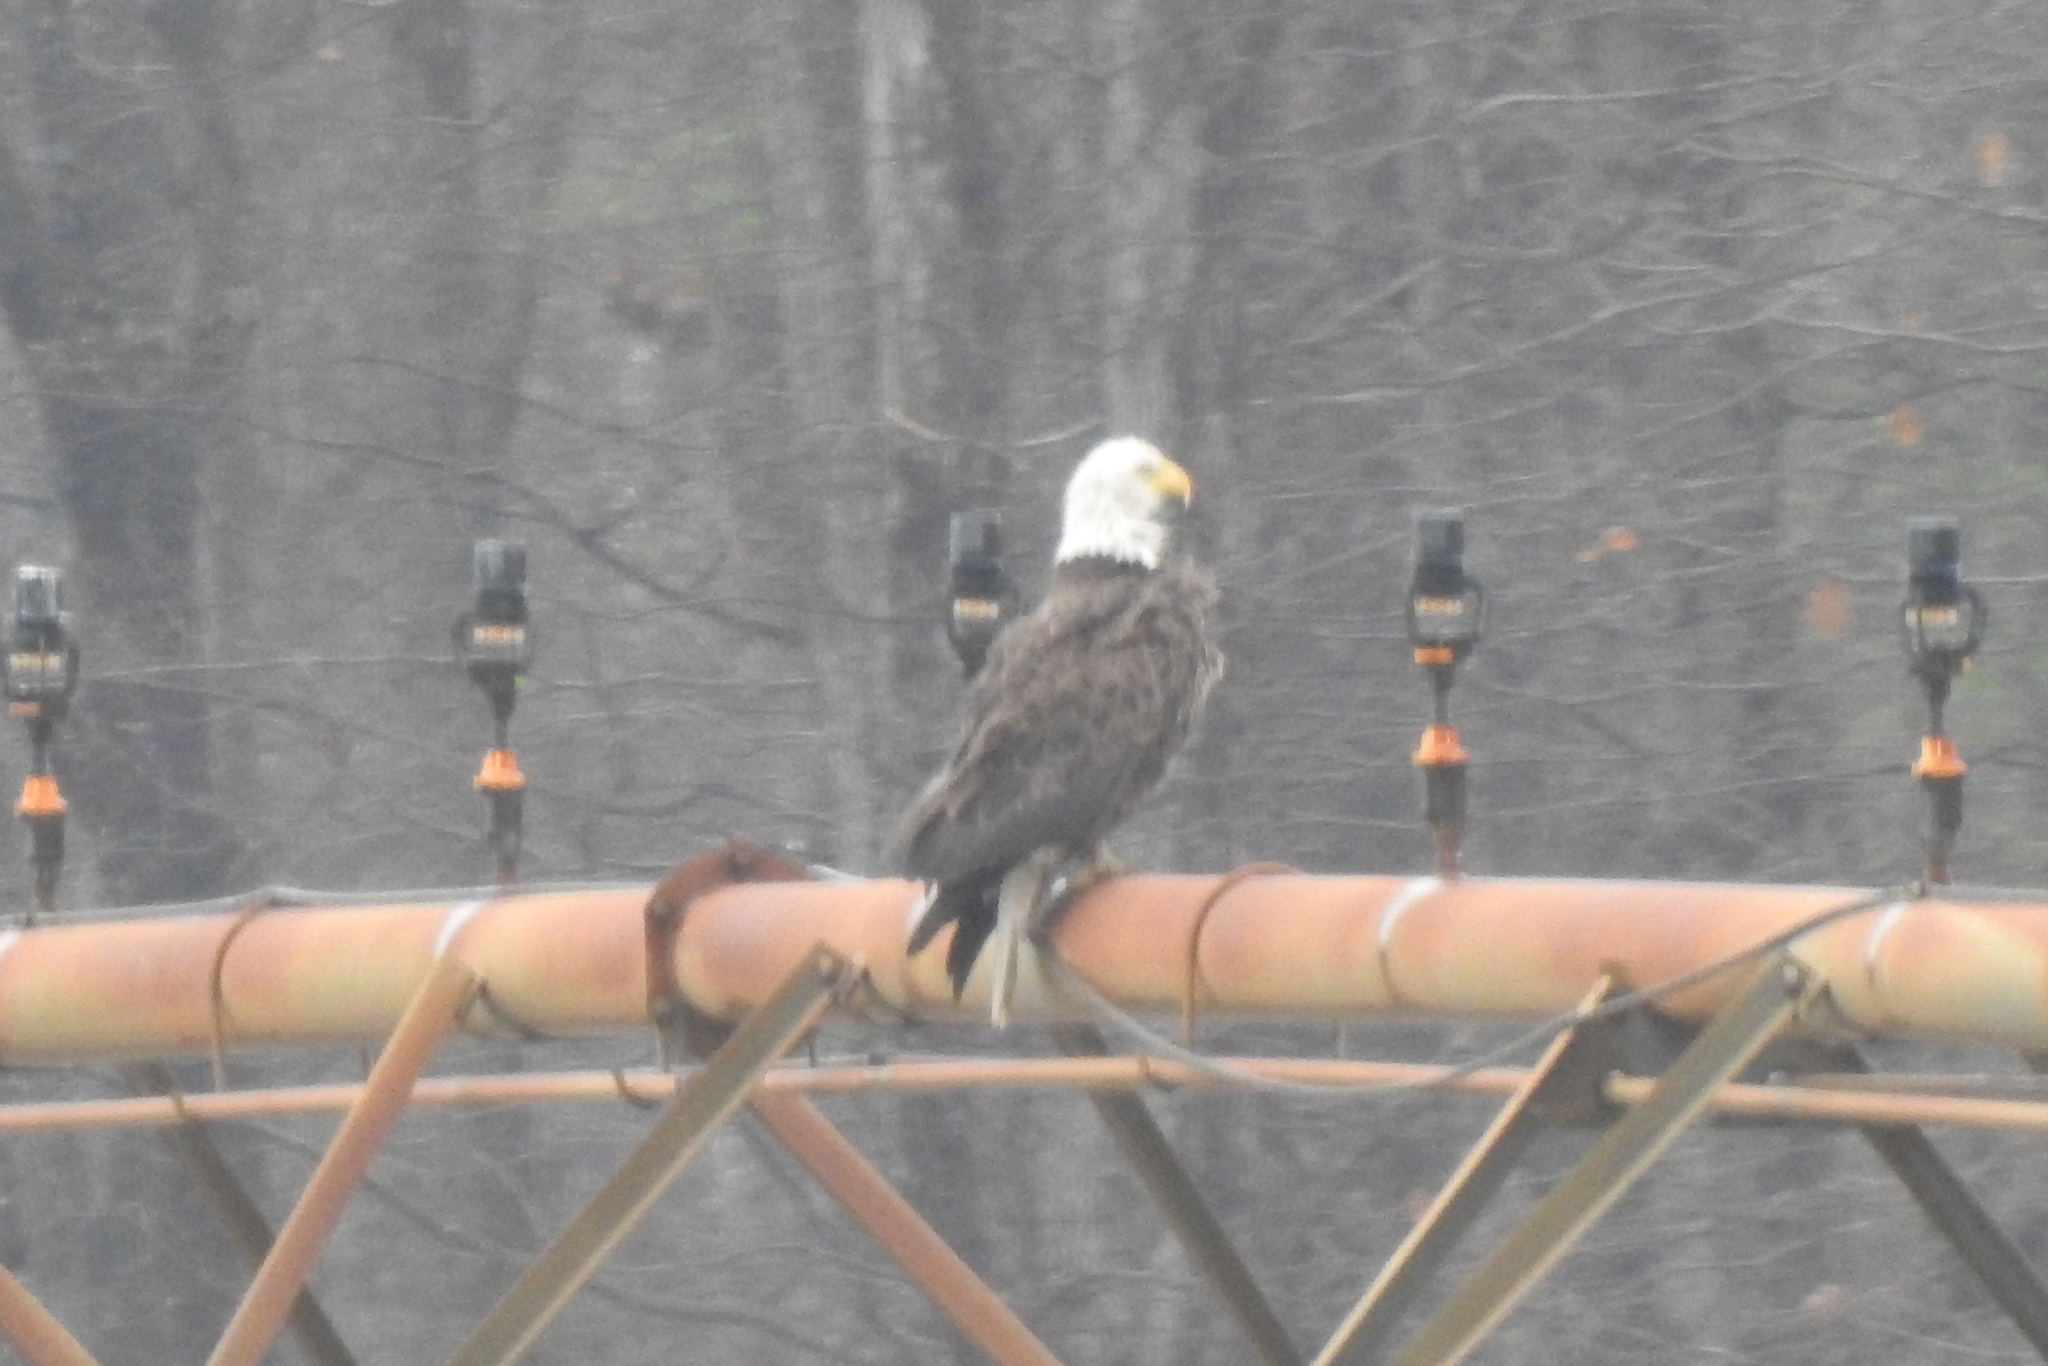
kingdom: Animalia
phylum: Chordata
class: Aves
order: Accipitriformes
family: Accipitridae
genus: Haliaeetus
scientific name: Haliaeetus leucocephalus
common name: Bald eagle
